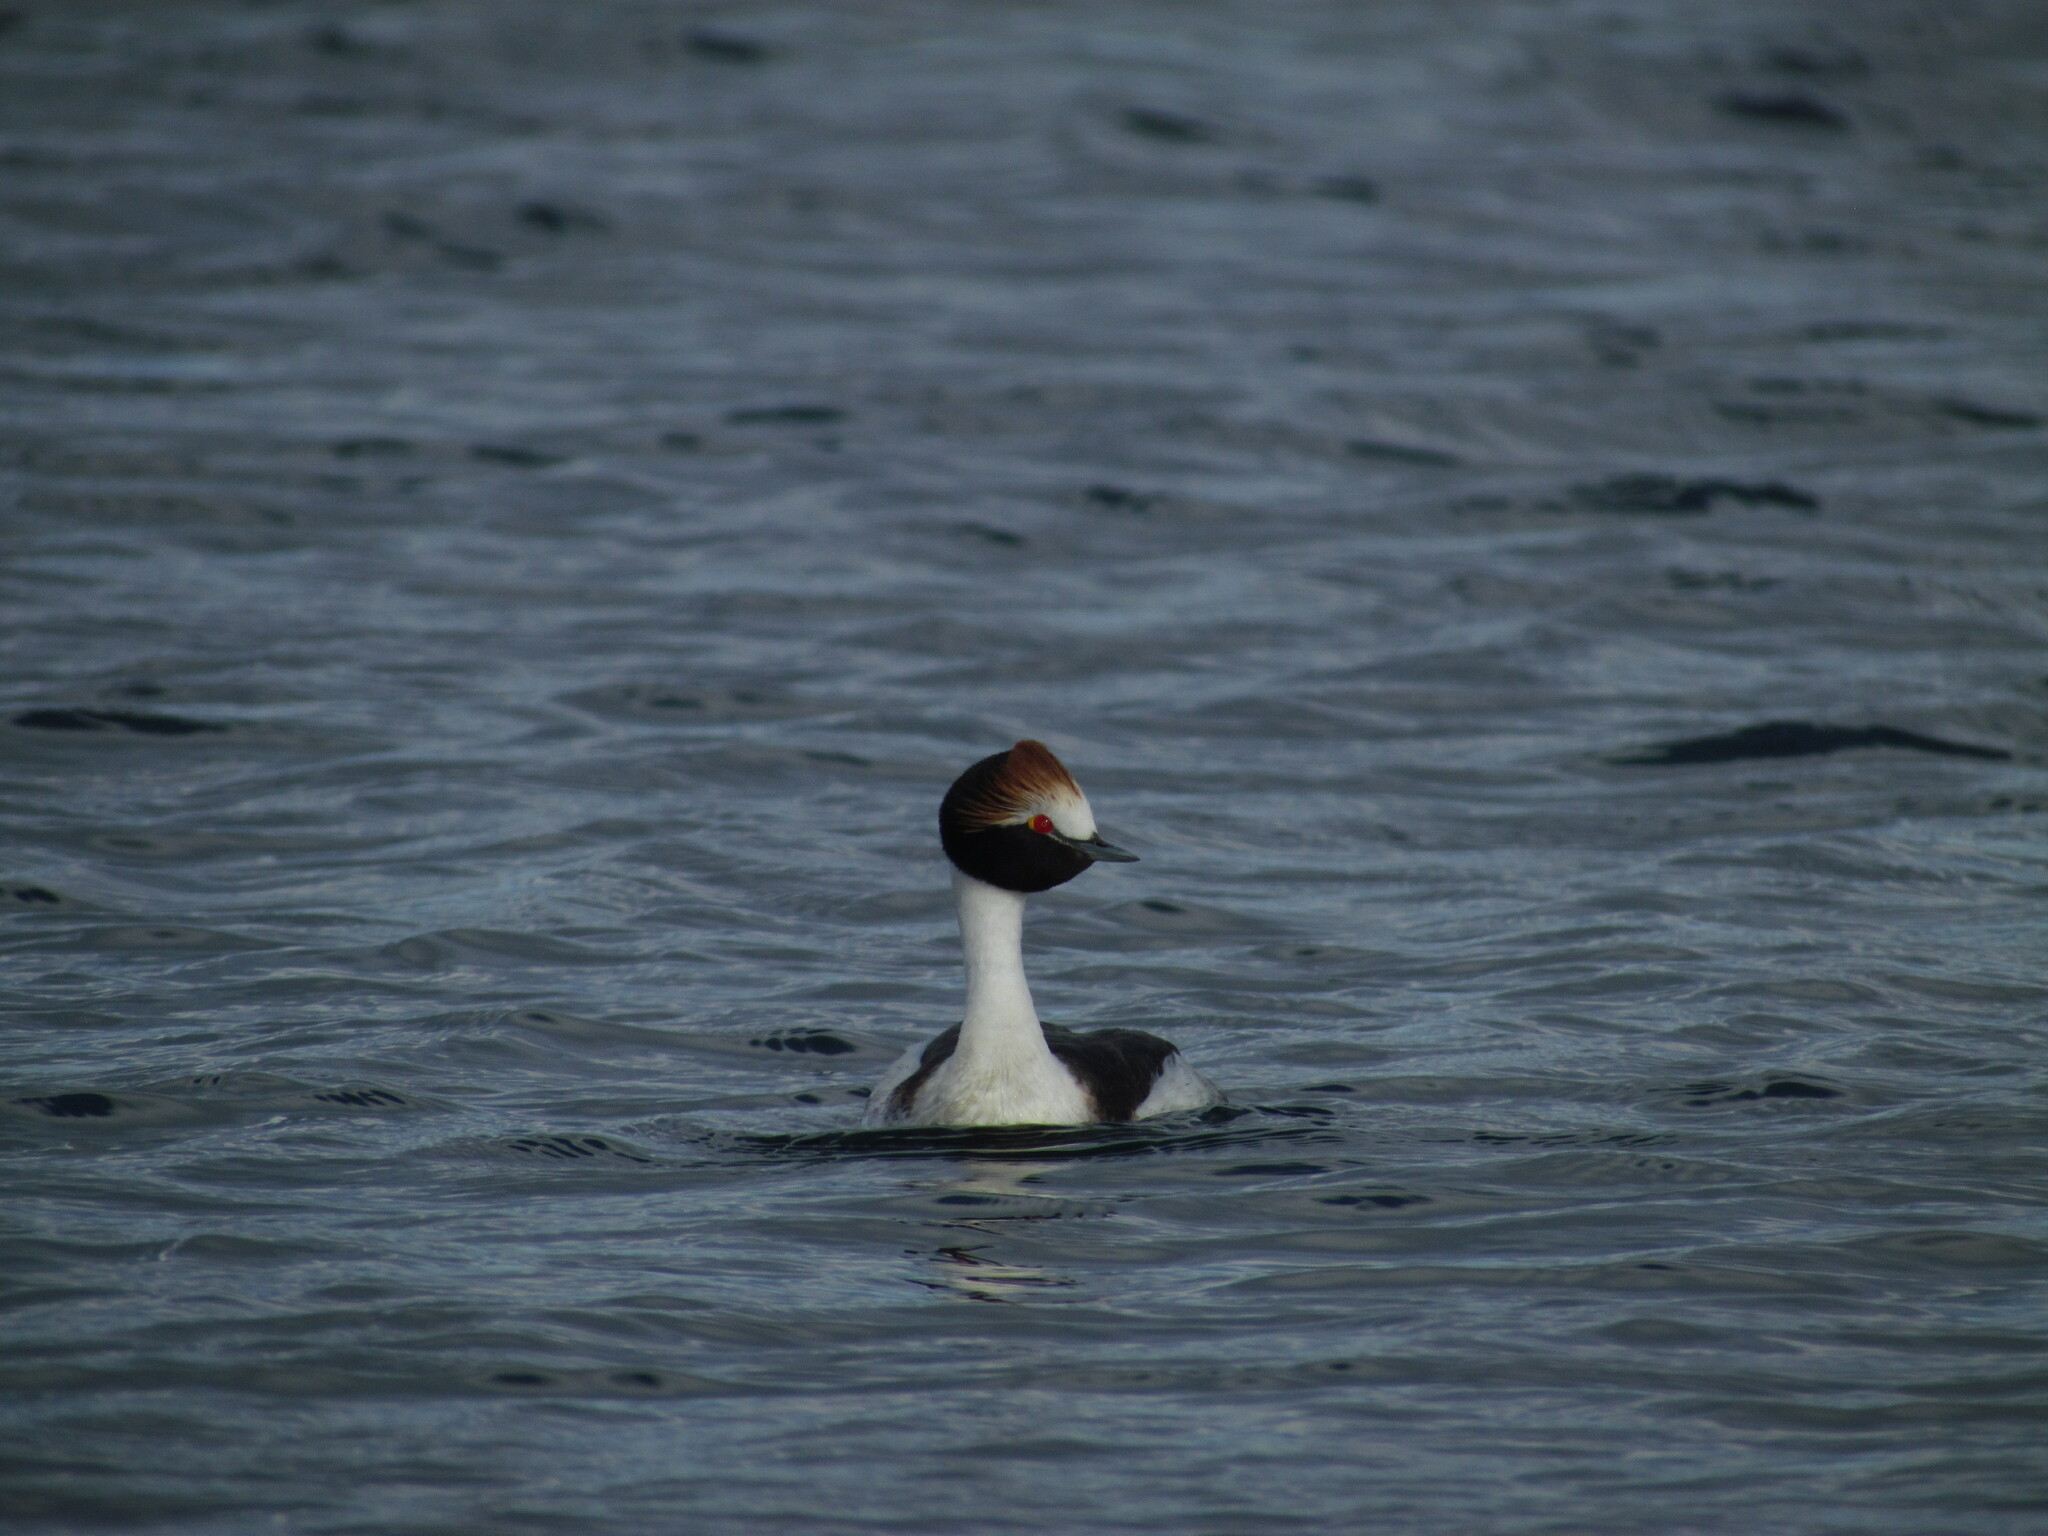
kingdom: Animalia
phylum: Chordata
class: Aves
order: Podicipediformes
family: Podicipedidae
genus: Podiceps
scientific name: Podiceps gallardoi
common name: Hooded grebe
